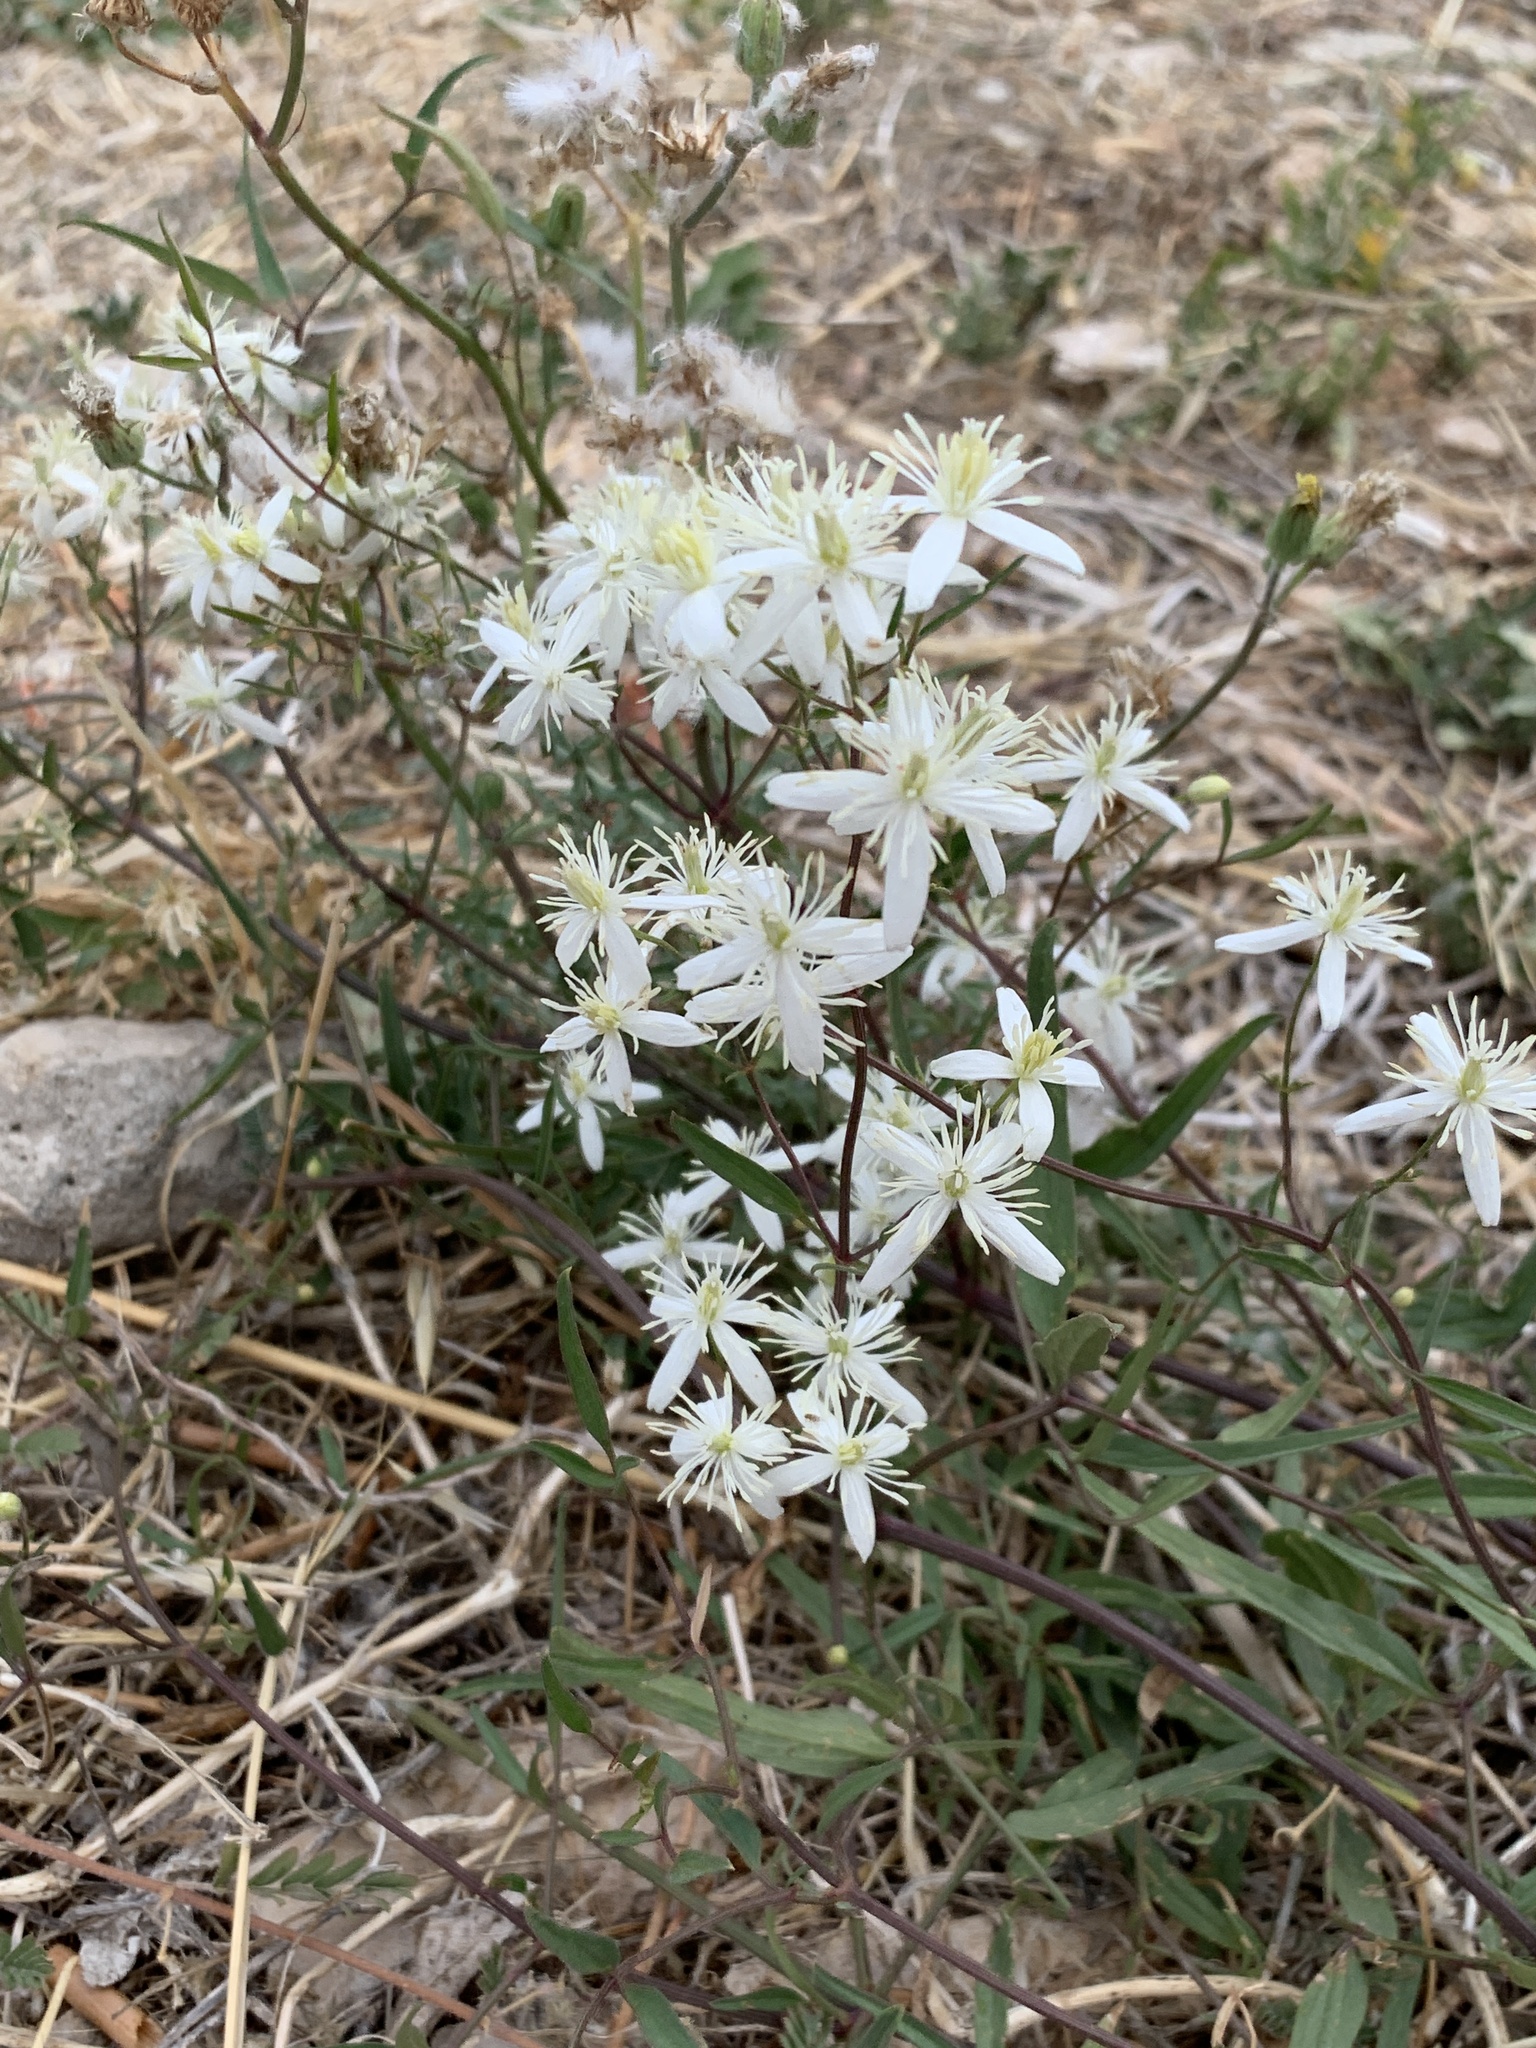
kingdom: Plantae
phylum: Tracheophyta
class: Magnoliopsida
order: Ranunculales
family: Ranunculaceae
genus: Clematis
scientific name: Clematis flammula
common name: Virgin's-bower
